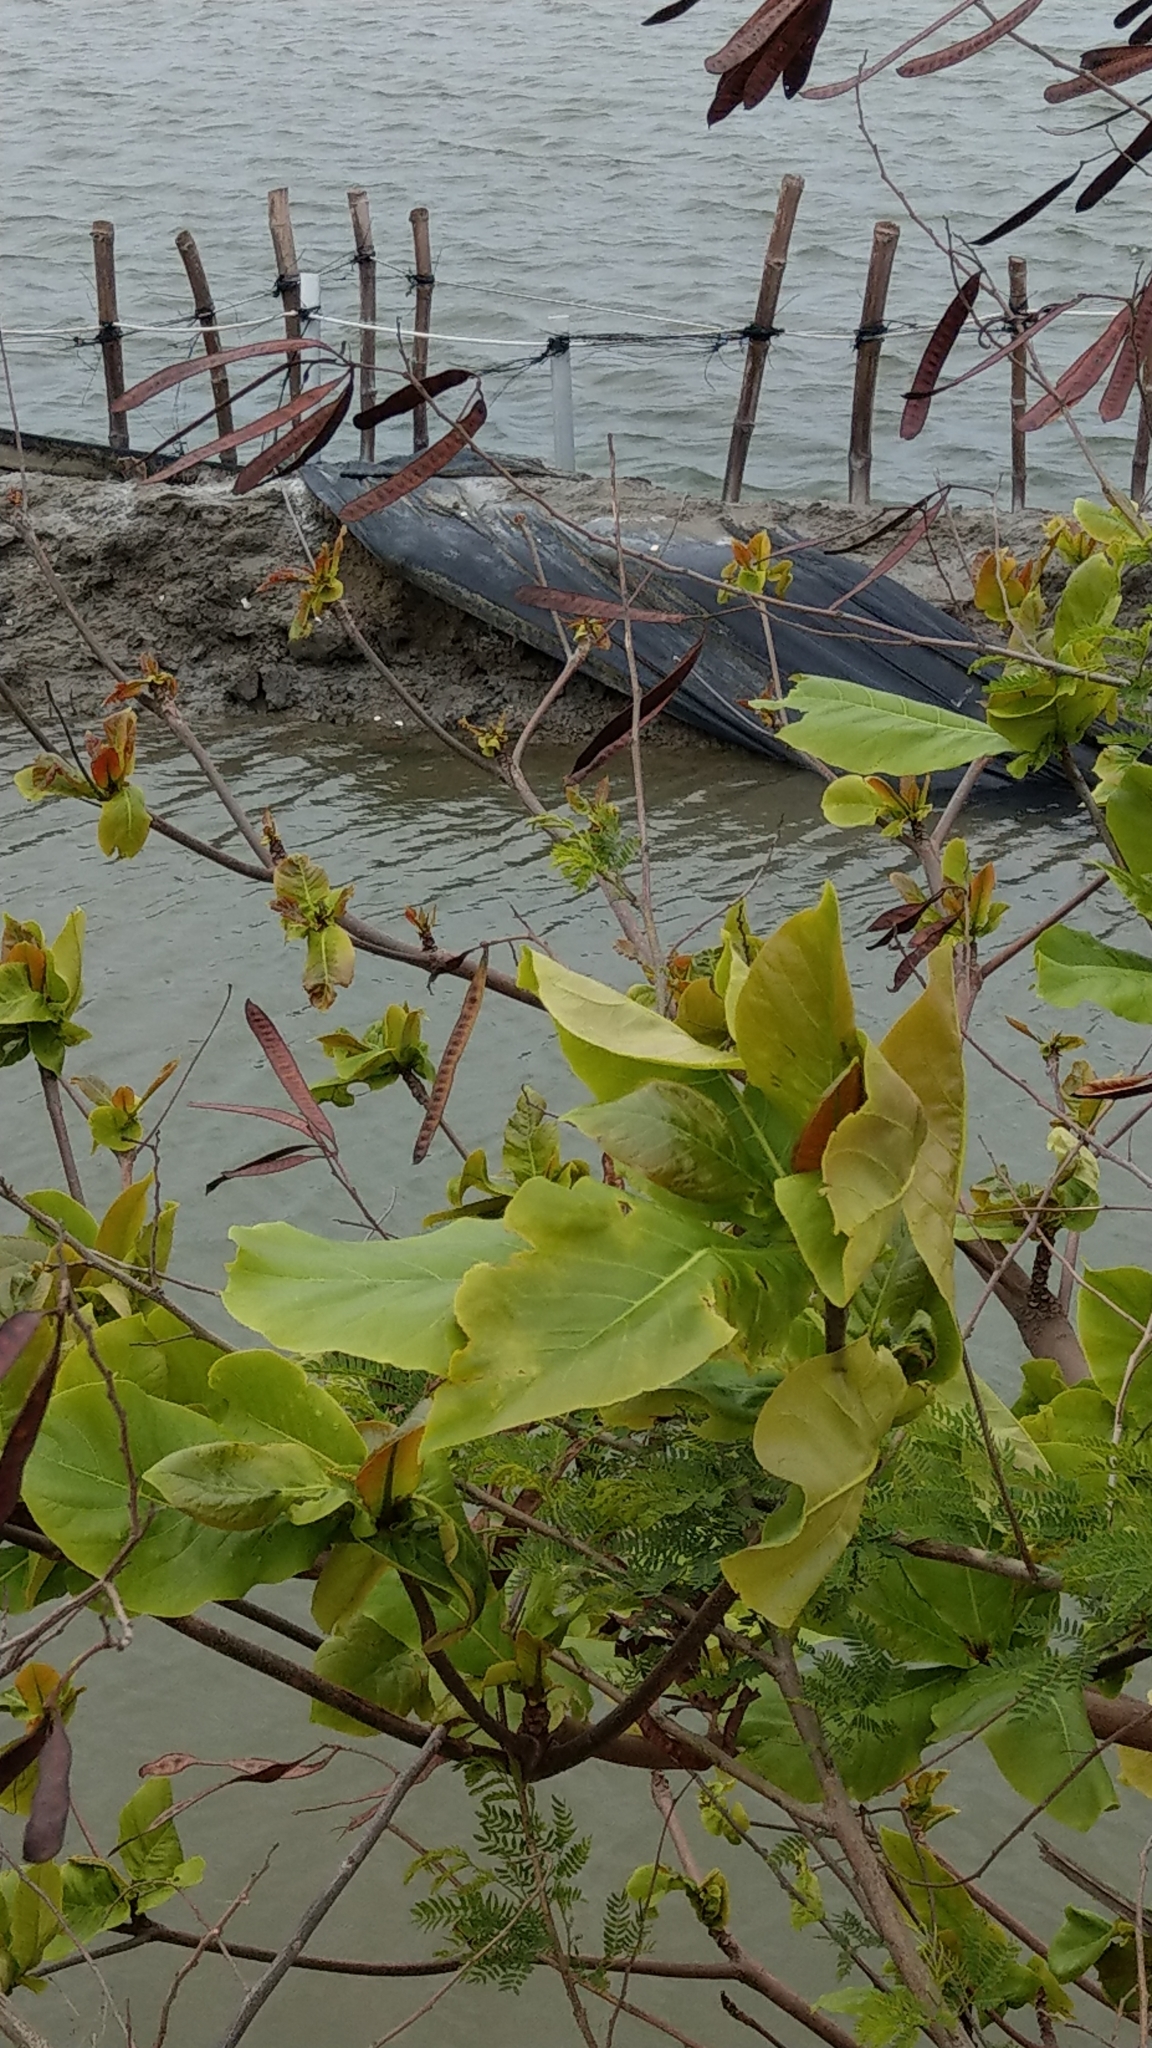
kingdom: Plantae
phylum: Tracheophyta
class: Magnoliopsida
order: Myrtales
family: Combretaceae
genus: Terminalia
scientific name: Terminalia catappa
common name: Tropical almond
